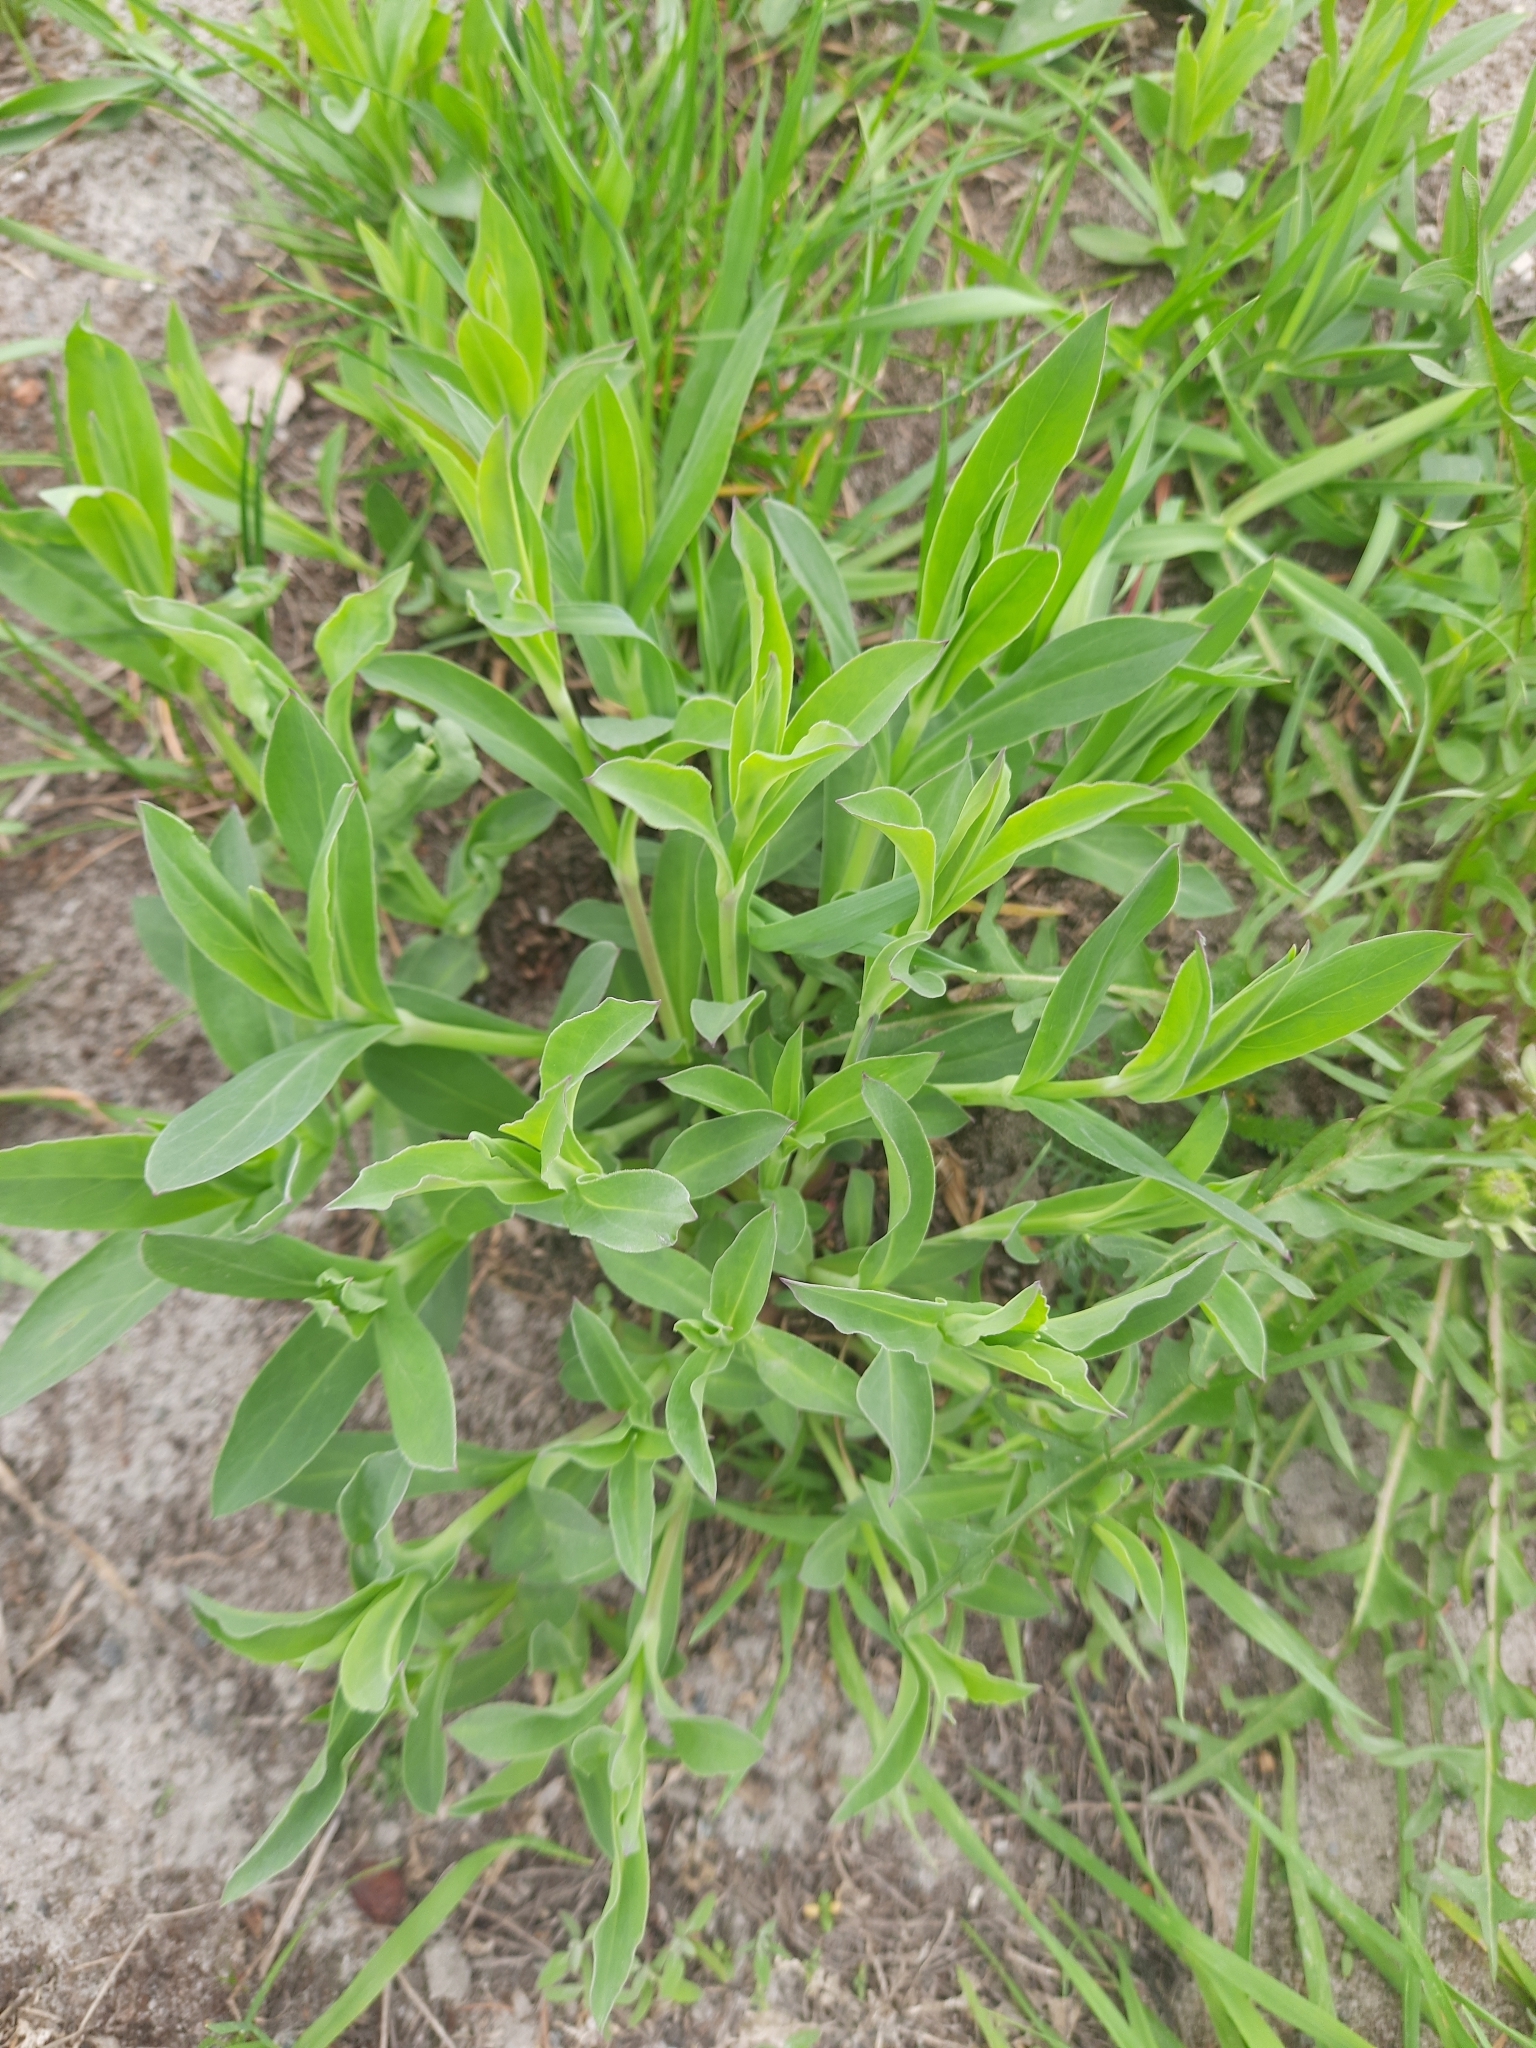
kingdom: Plantae
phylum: Tracheophyta
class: Magnoliopsida
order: Caryophyllales
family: Caryophyllaceae
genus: Silene
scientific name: Silene vulgaris
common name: Bladder campion
